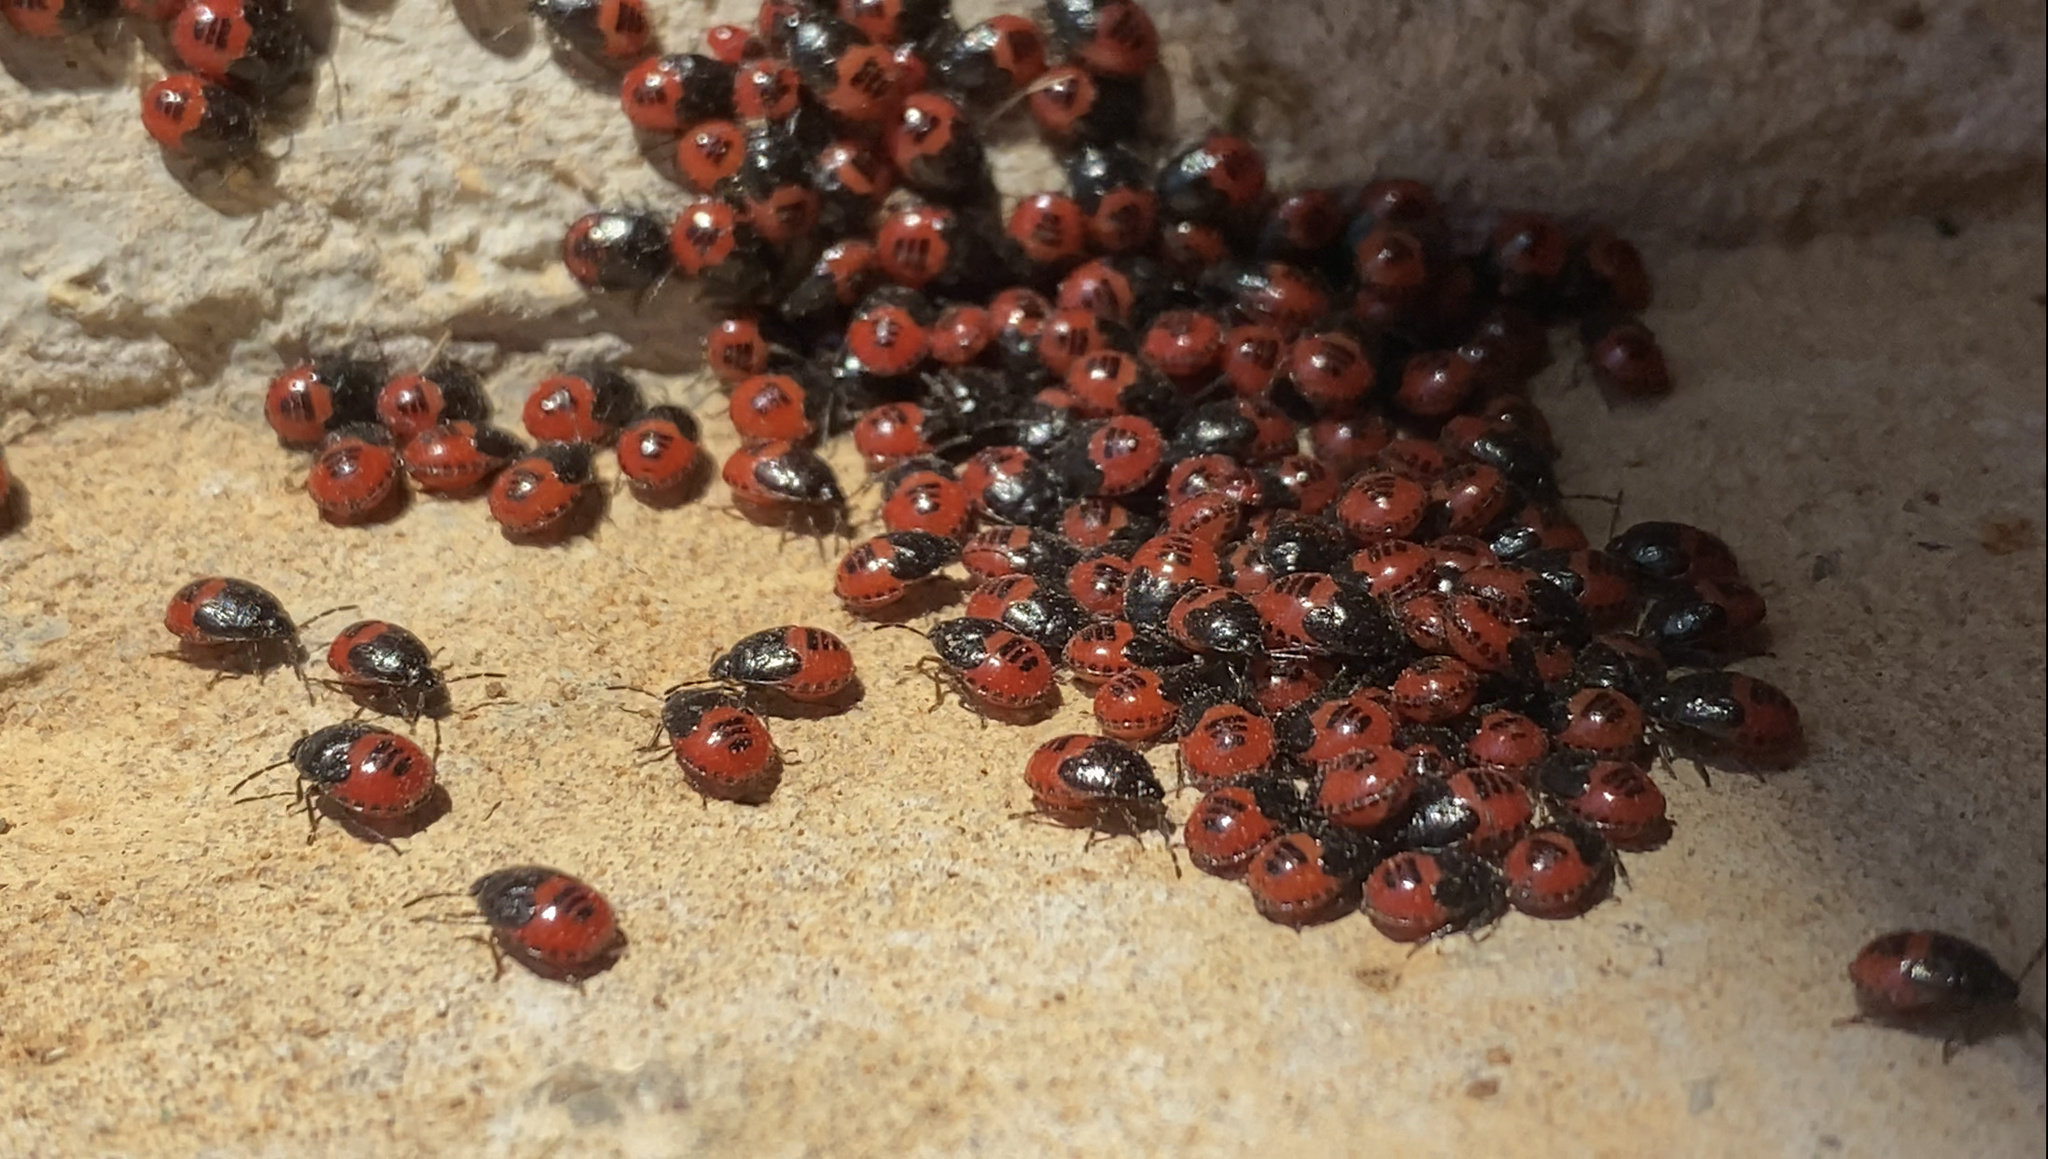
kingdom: Animalia
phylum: Arthropoda
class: Insecta
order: Hemiptera
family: Cydnidae
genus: Sehirus
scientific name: Sehirus cinctus
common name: White-margined burrower bug
